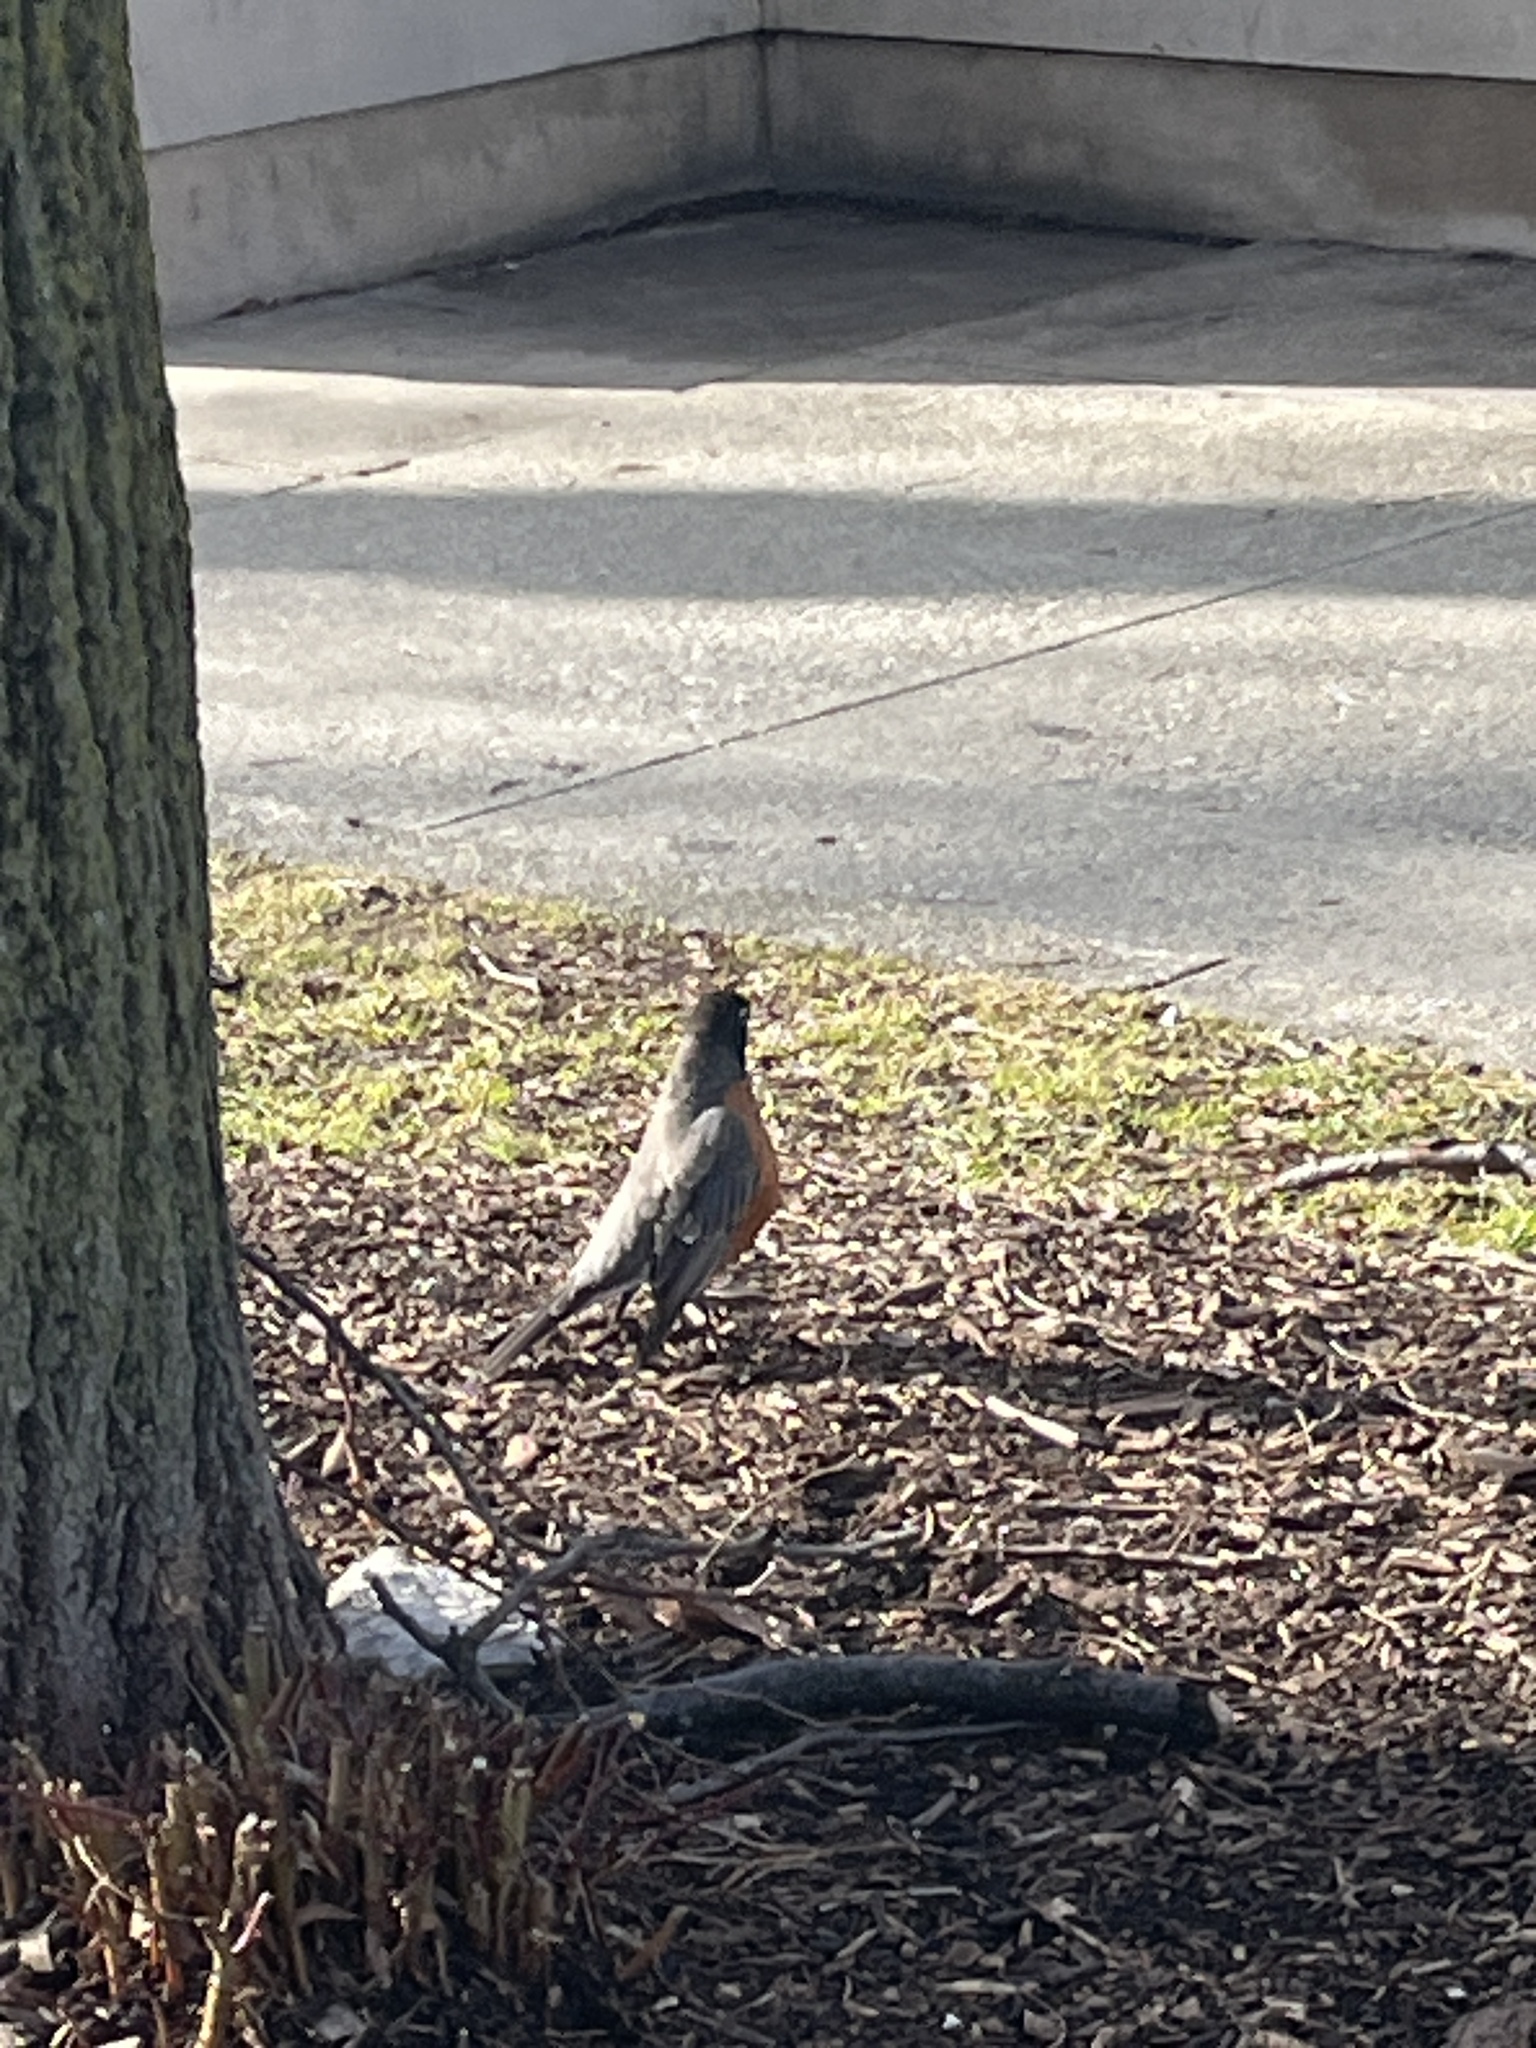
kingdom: Animalia
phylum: Chordata
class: Aves
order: Passeriformes
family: Turdidae
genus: Turdus
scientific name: Turdus migratorius
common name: American robin
